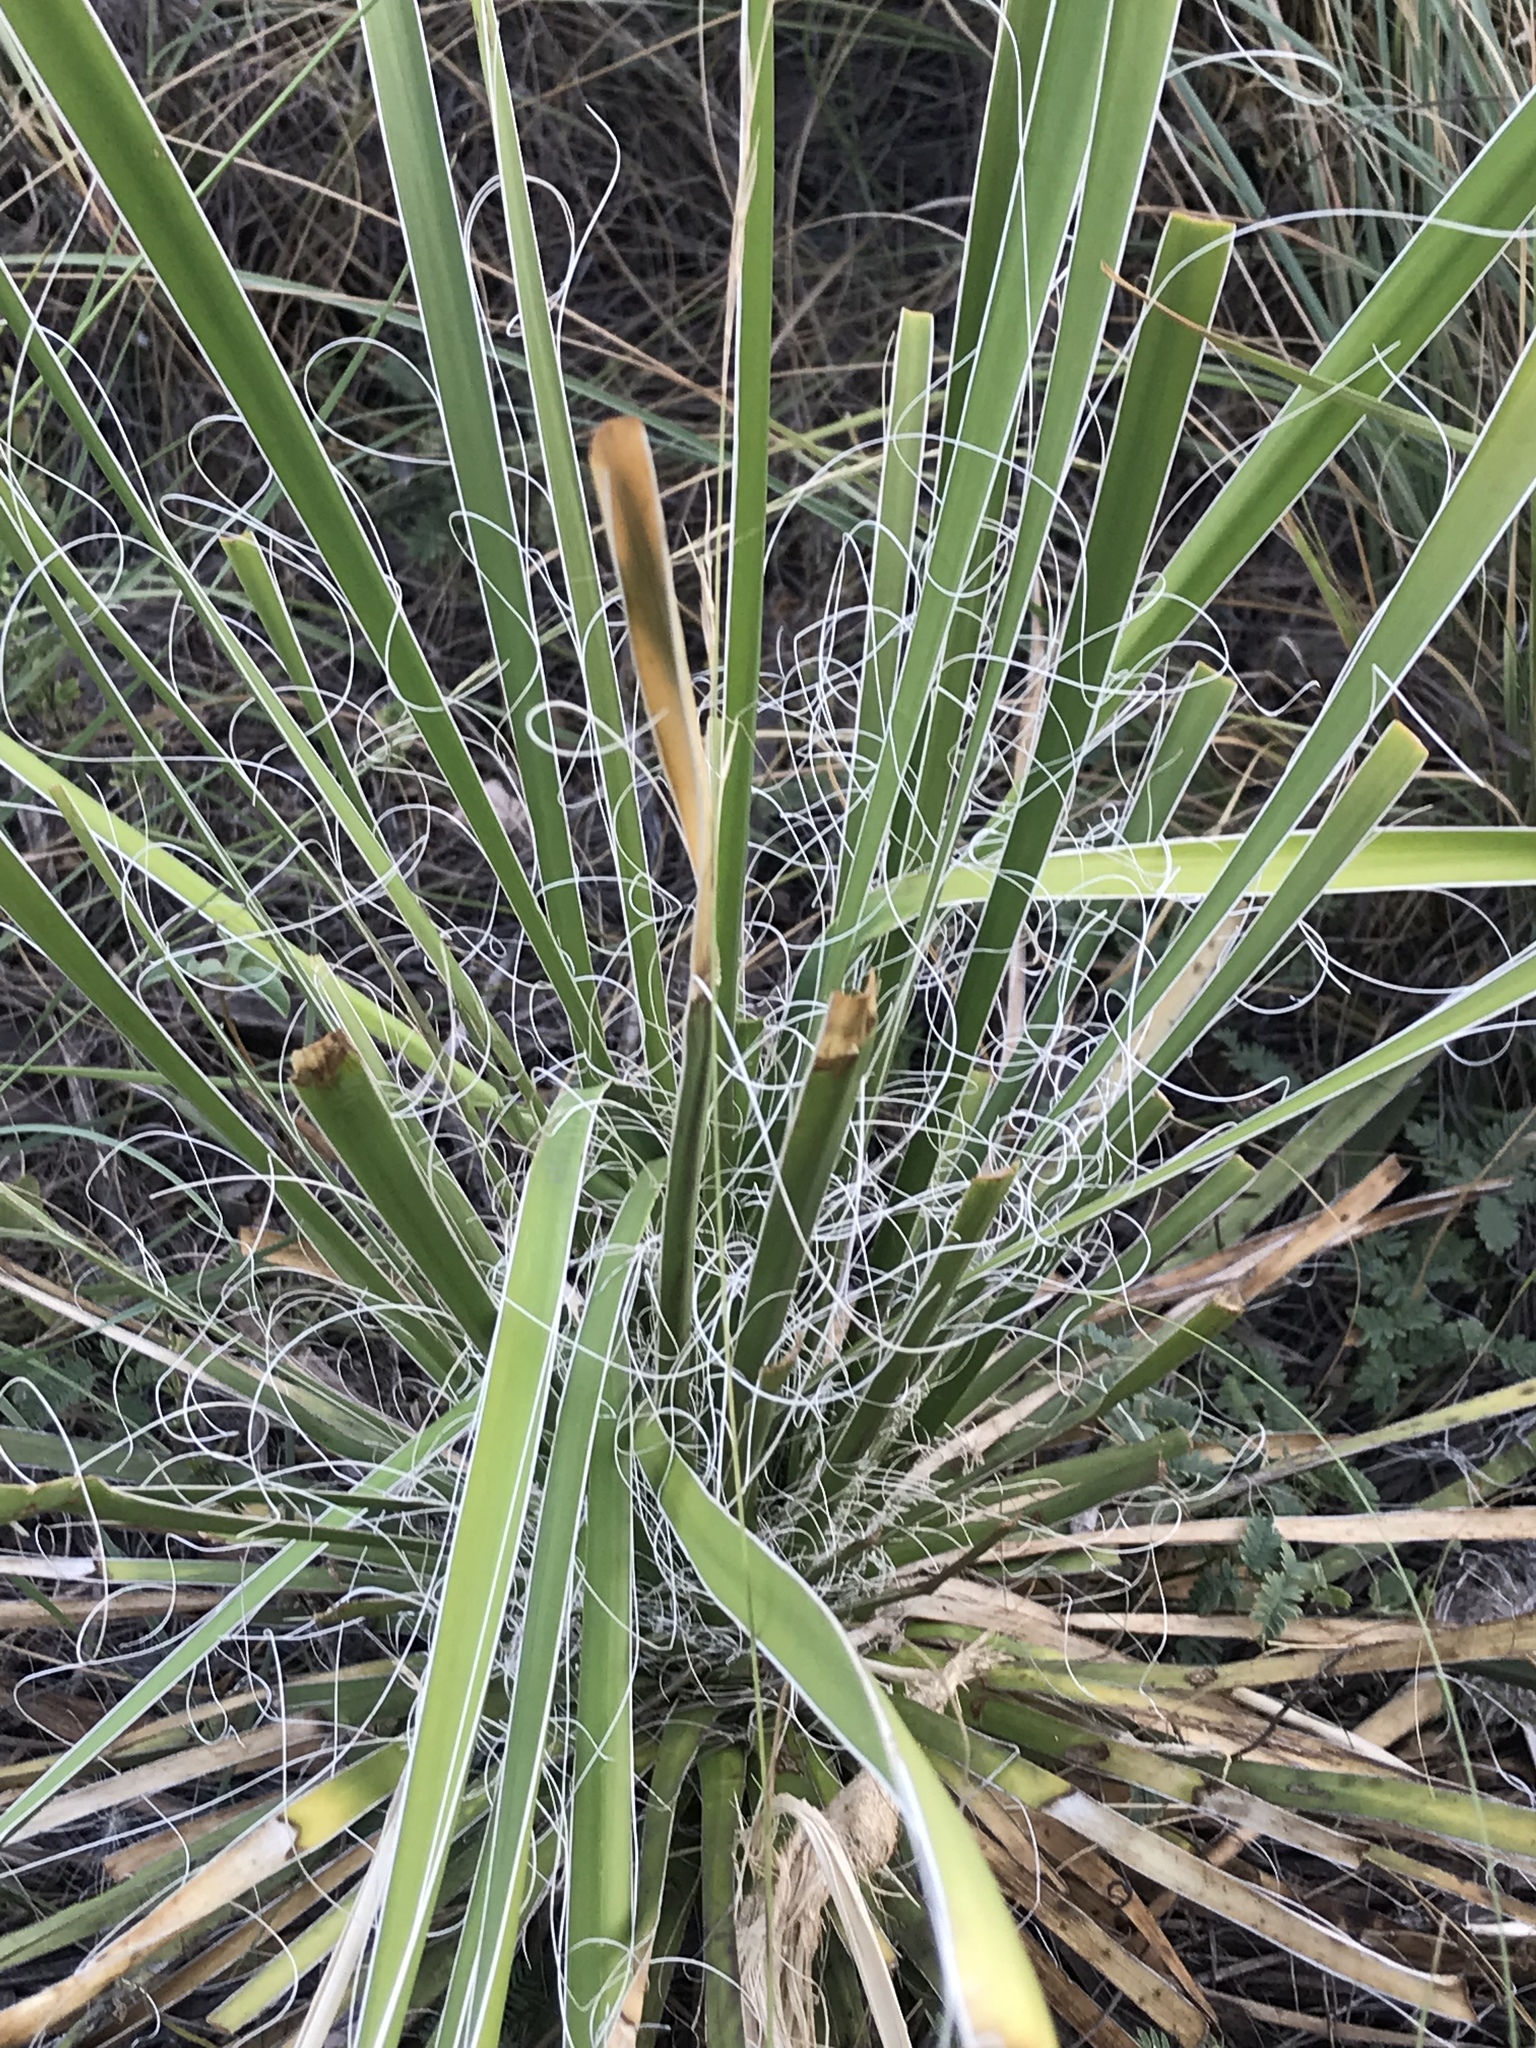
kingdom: Plantae
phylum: Tracheophyta
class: Liliopsida
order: Asparagales
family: Asparagaceae
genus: Yucca
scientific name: Yucca constricta
